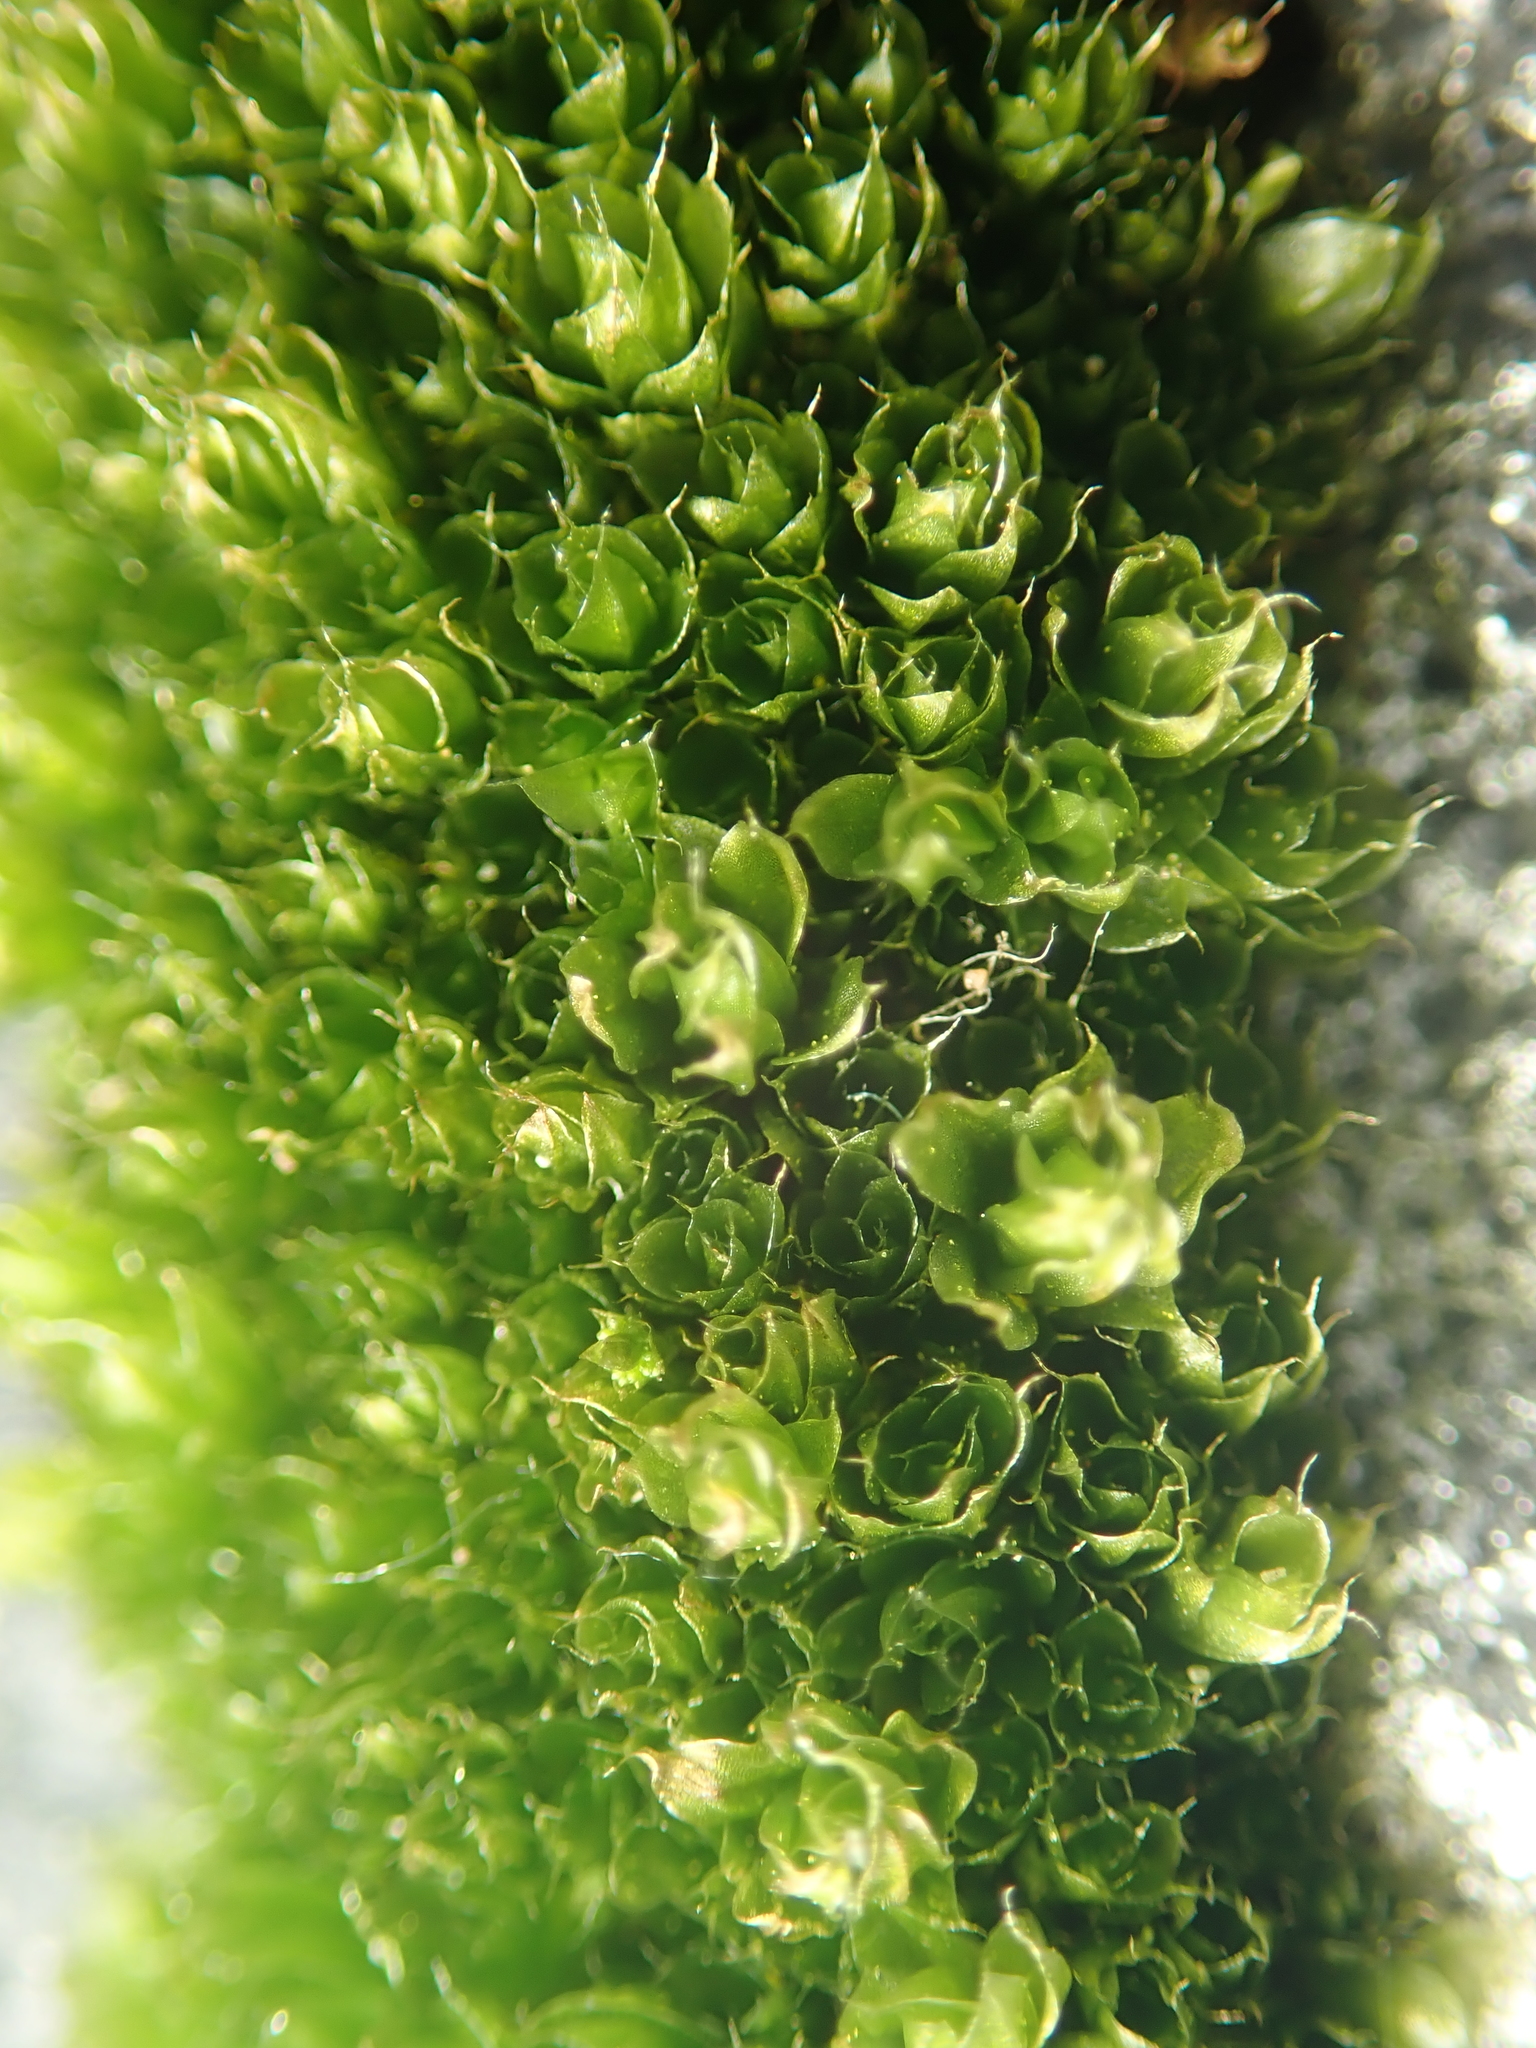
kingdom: Plantae
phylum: Bryophyta
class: Bryopsida
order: Bryales
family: Bryaceae
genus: Rosulabryum
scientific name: Rosulabryum capillare
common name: Capillary thread-moss
